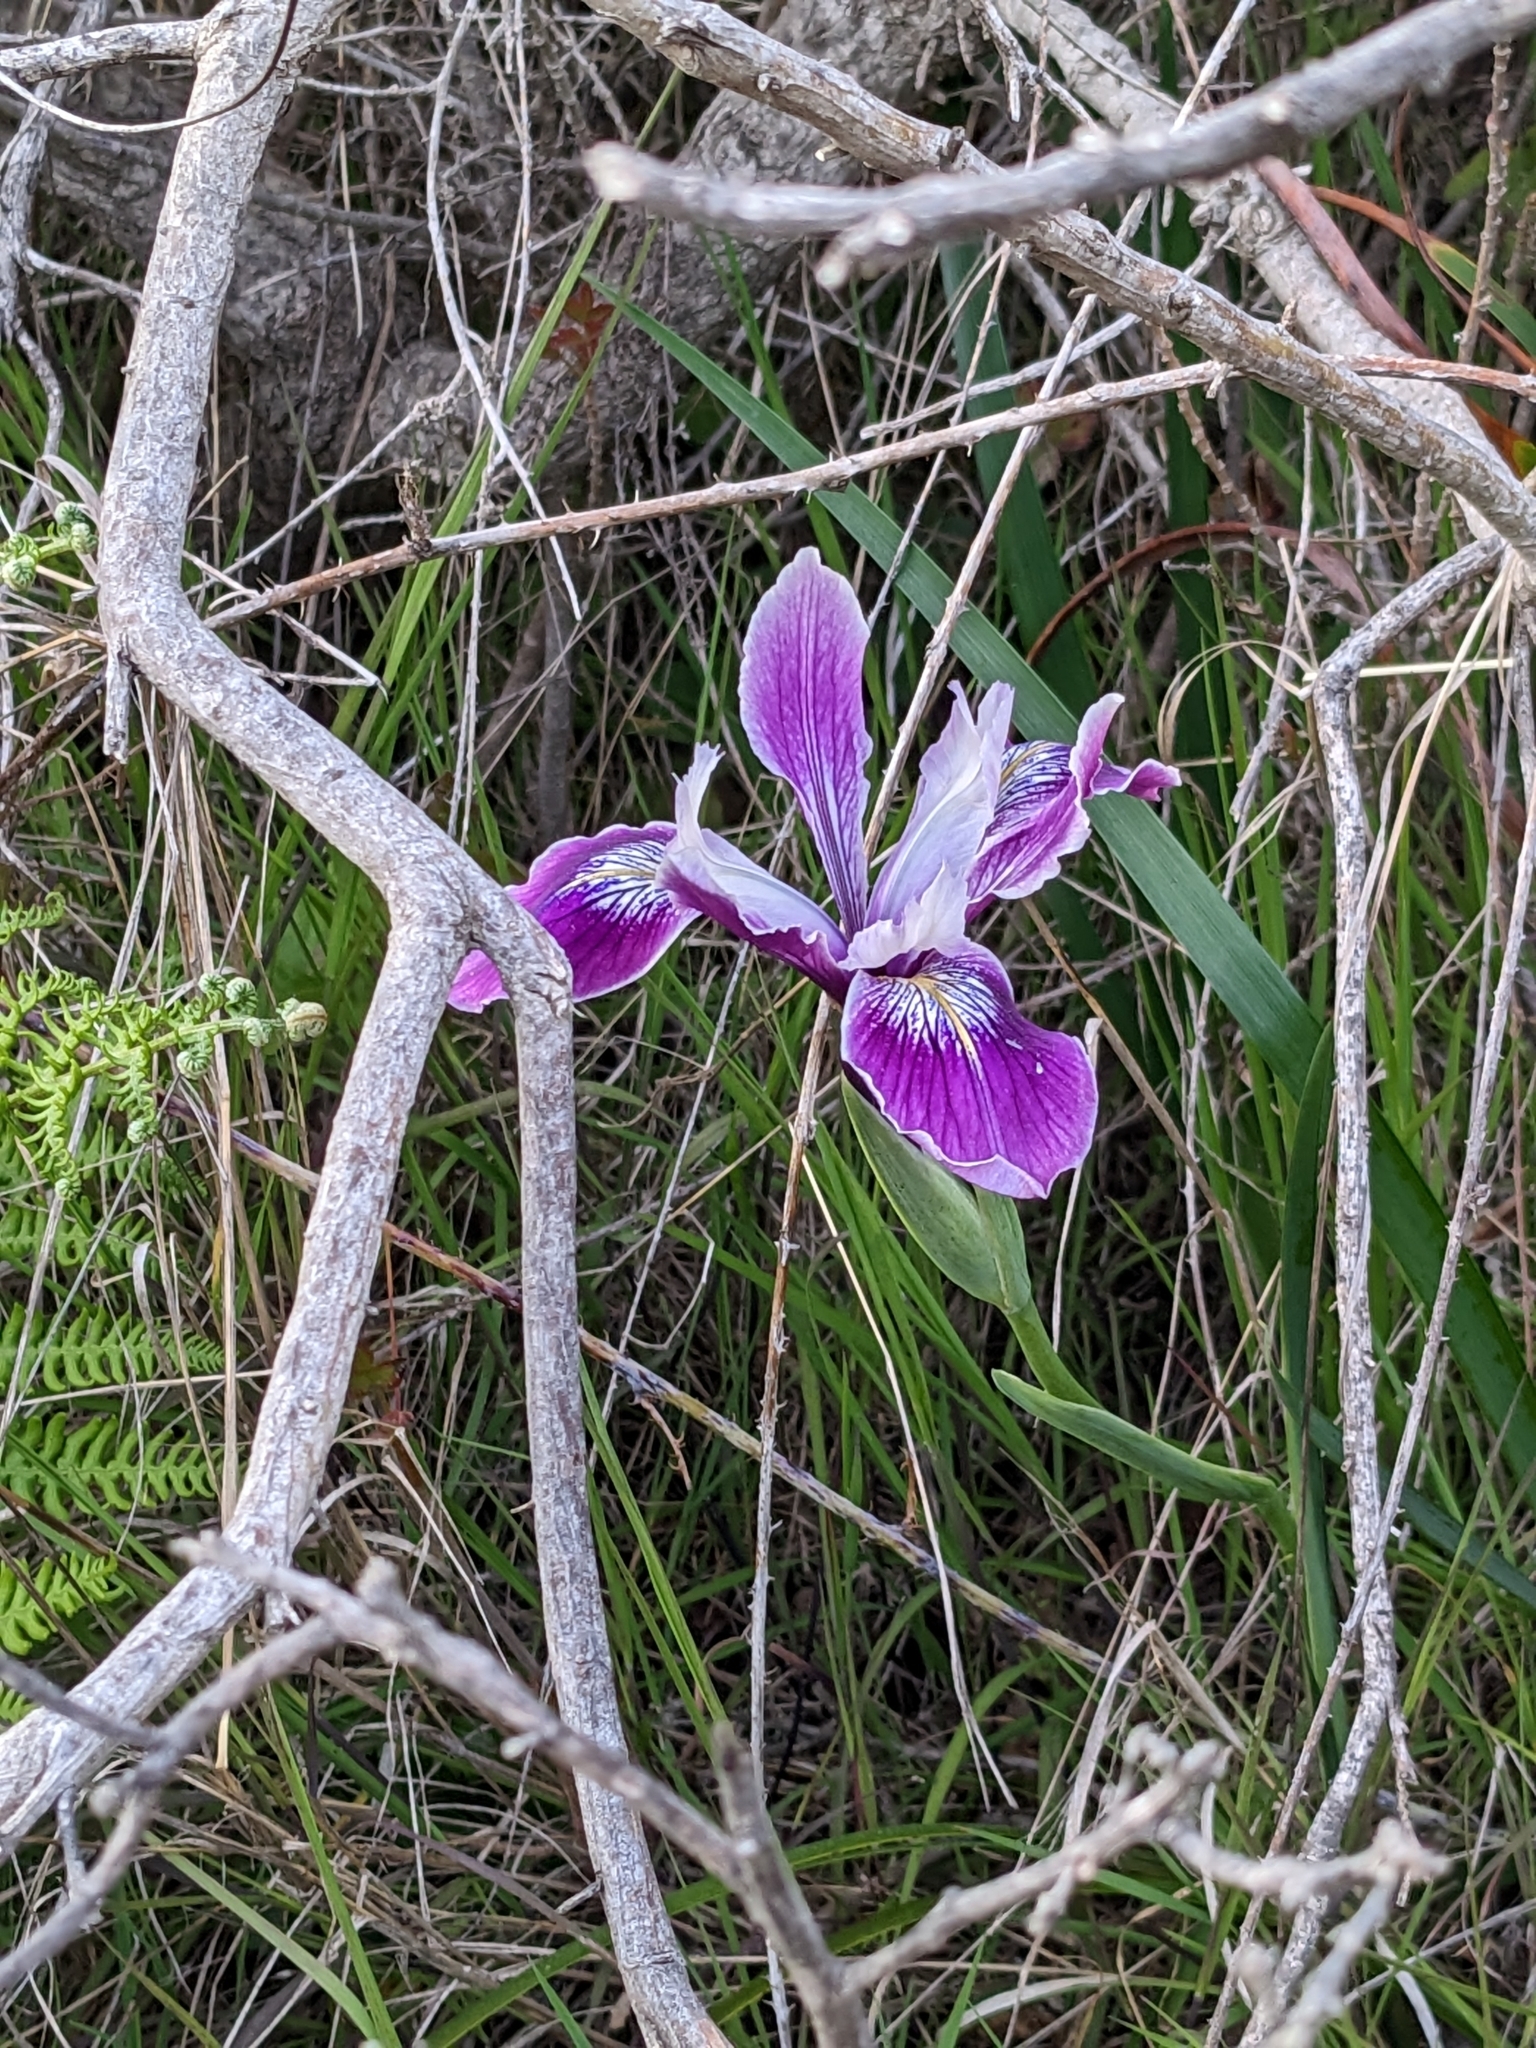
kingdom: Plantae
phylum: Tracheophyta
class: Liliopsida
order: Asparagales
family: Iridaceae
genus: Iris
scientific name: Iris douglasiana
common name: Marin iris
